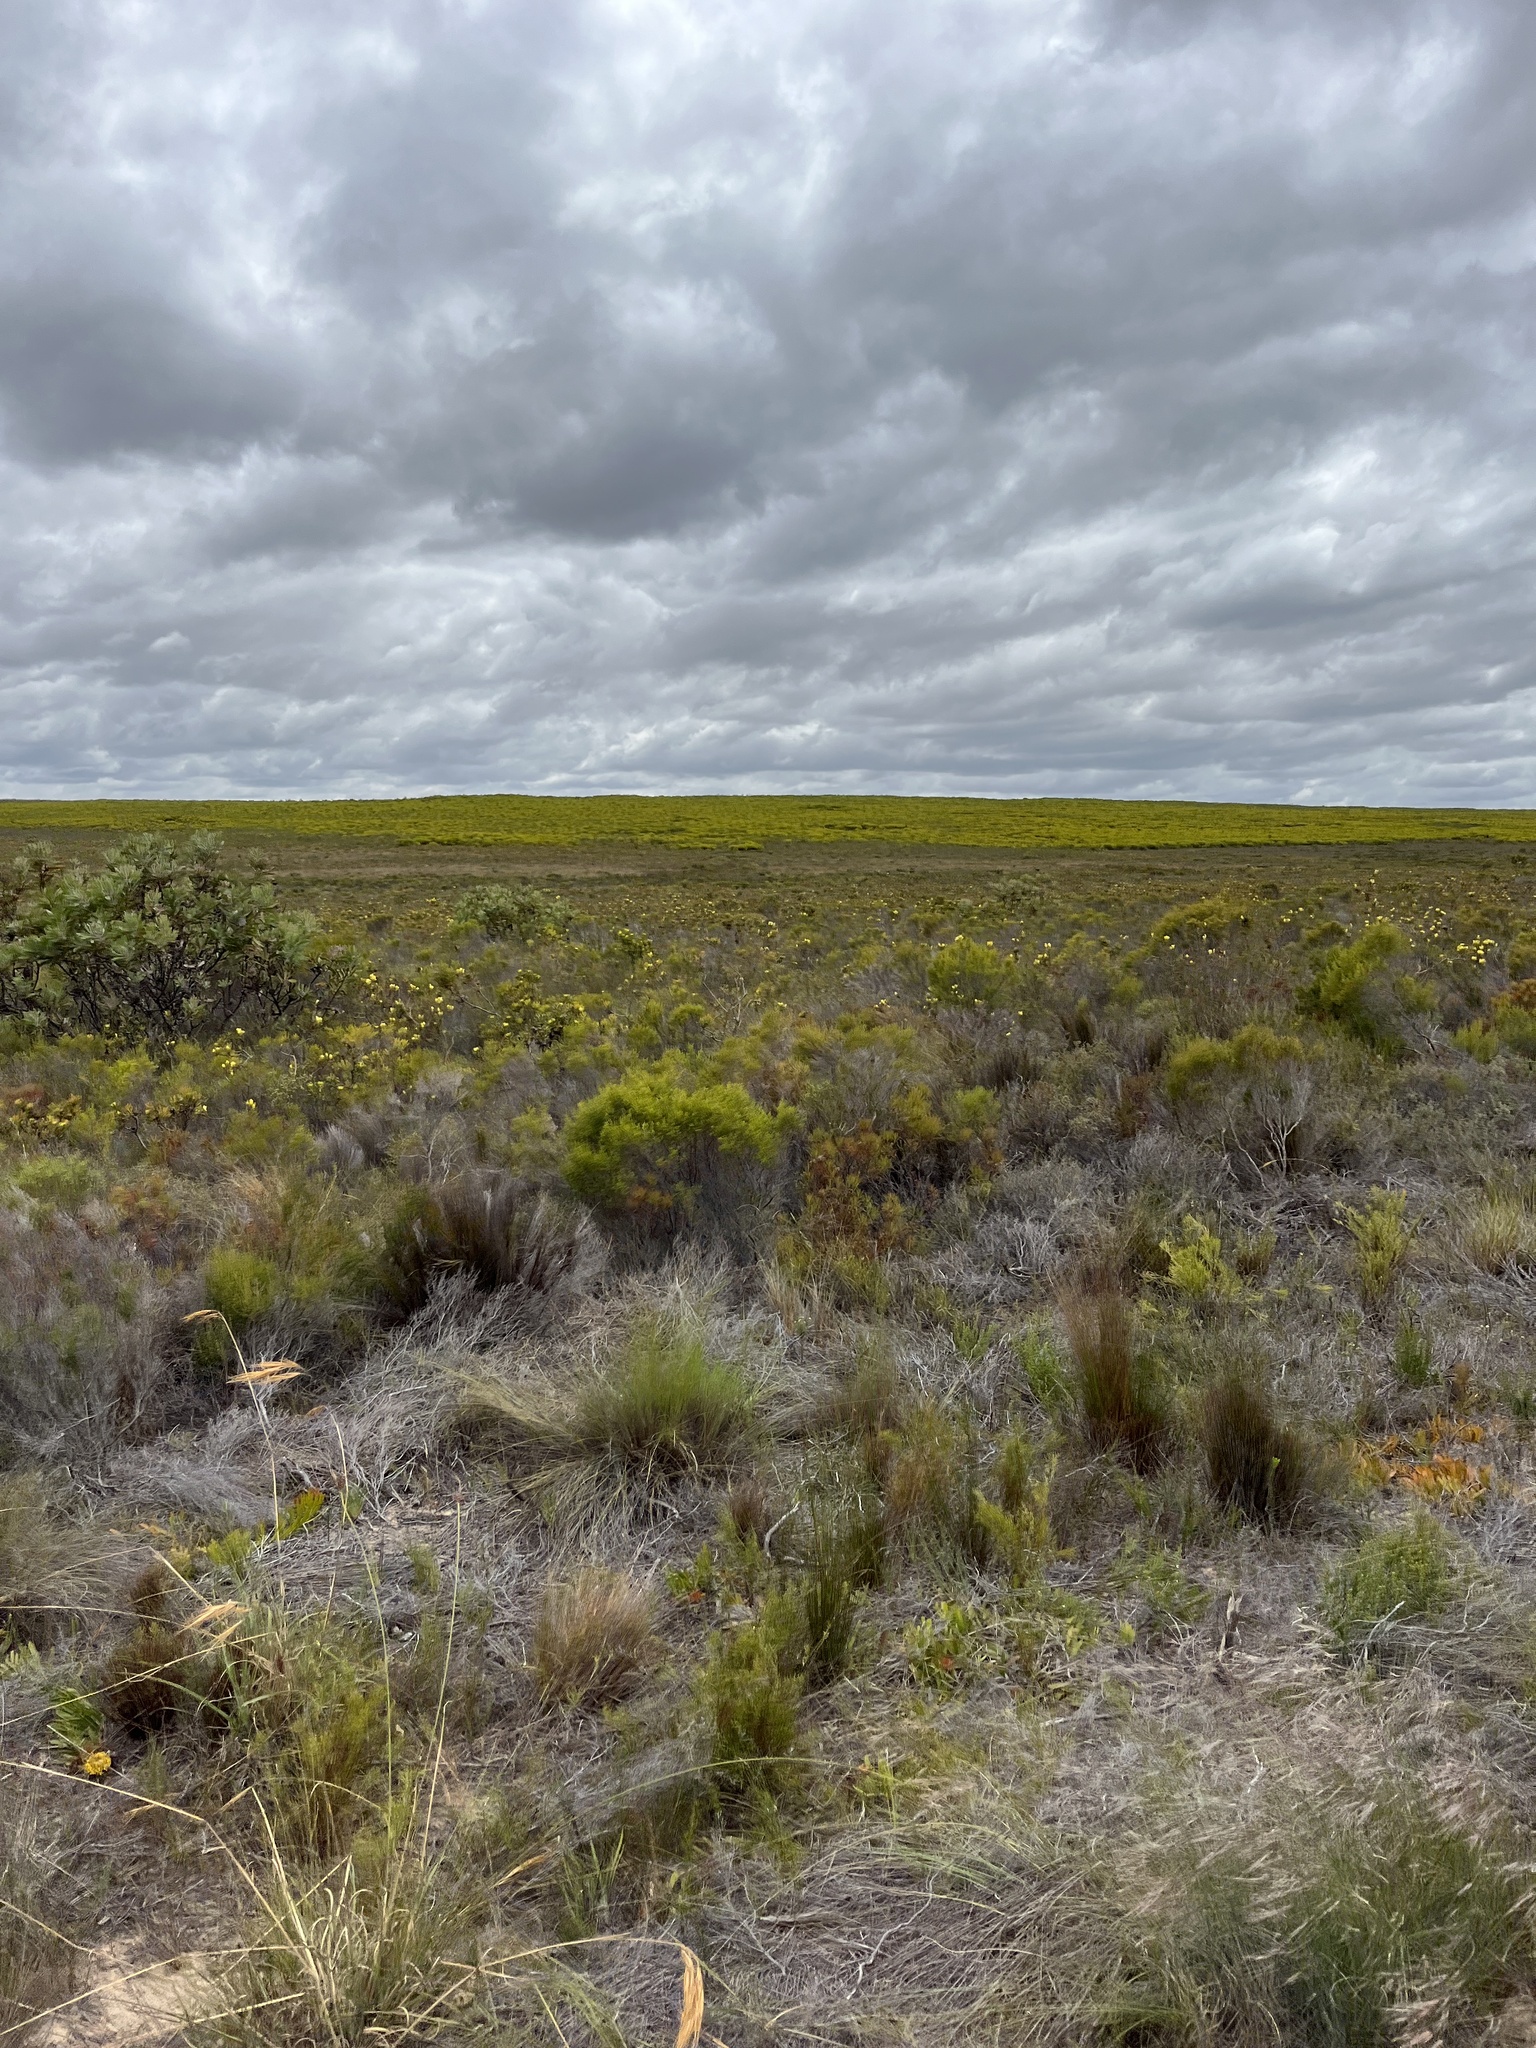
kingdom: Plantae
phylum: Tracheophyta
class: Magnoliopsida
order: Proteales
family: Proteaceae
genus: Leucadendron
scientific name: Leucadendron platyspermum
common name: Plate-seed conebush
